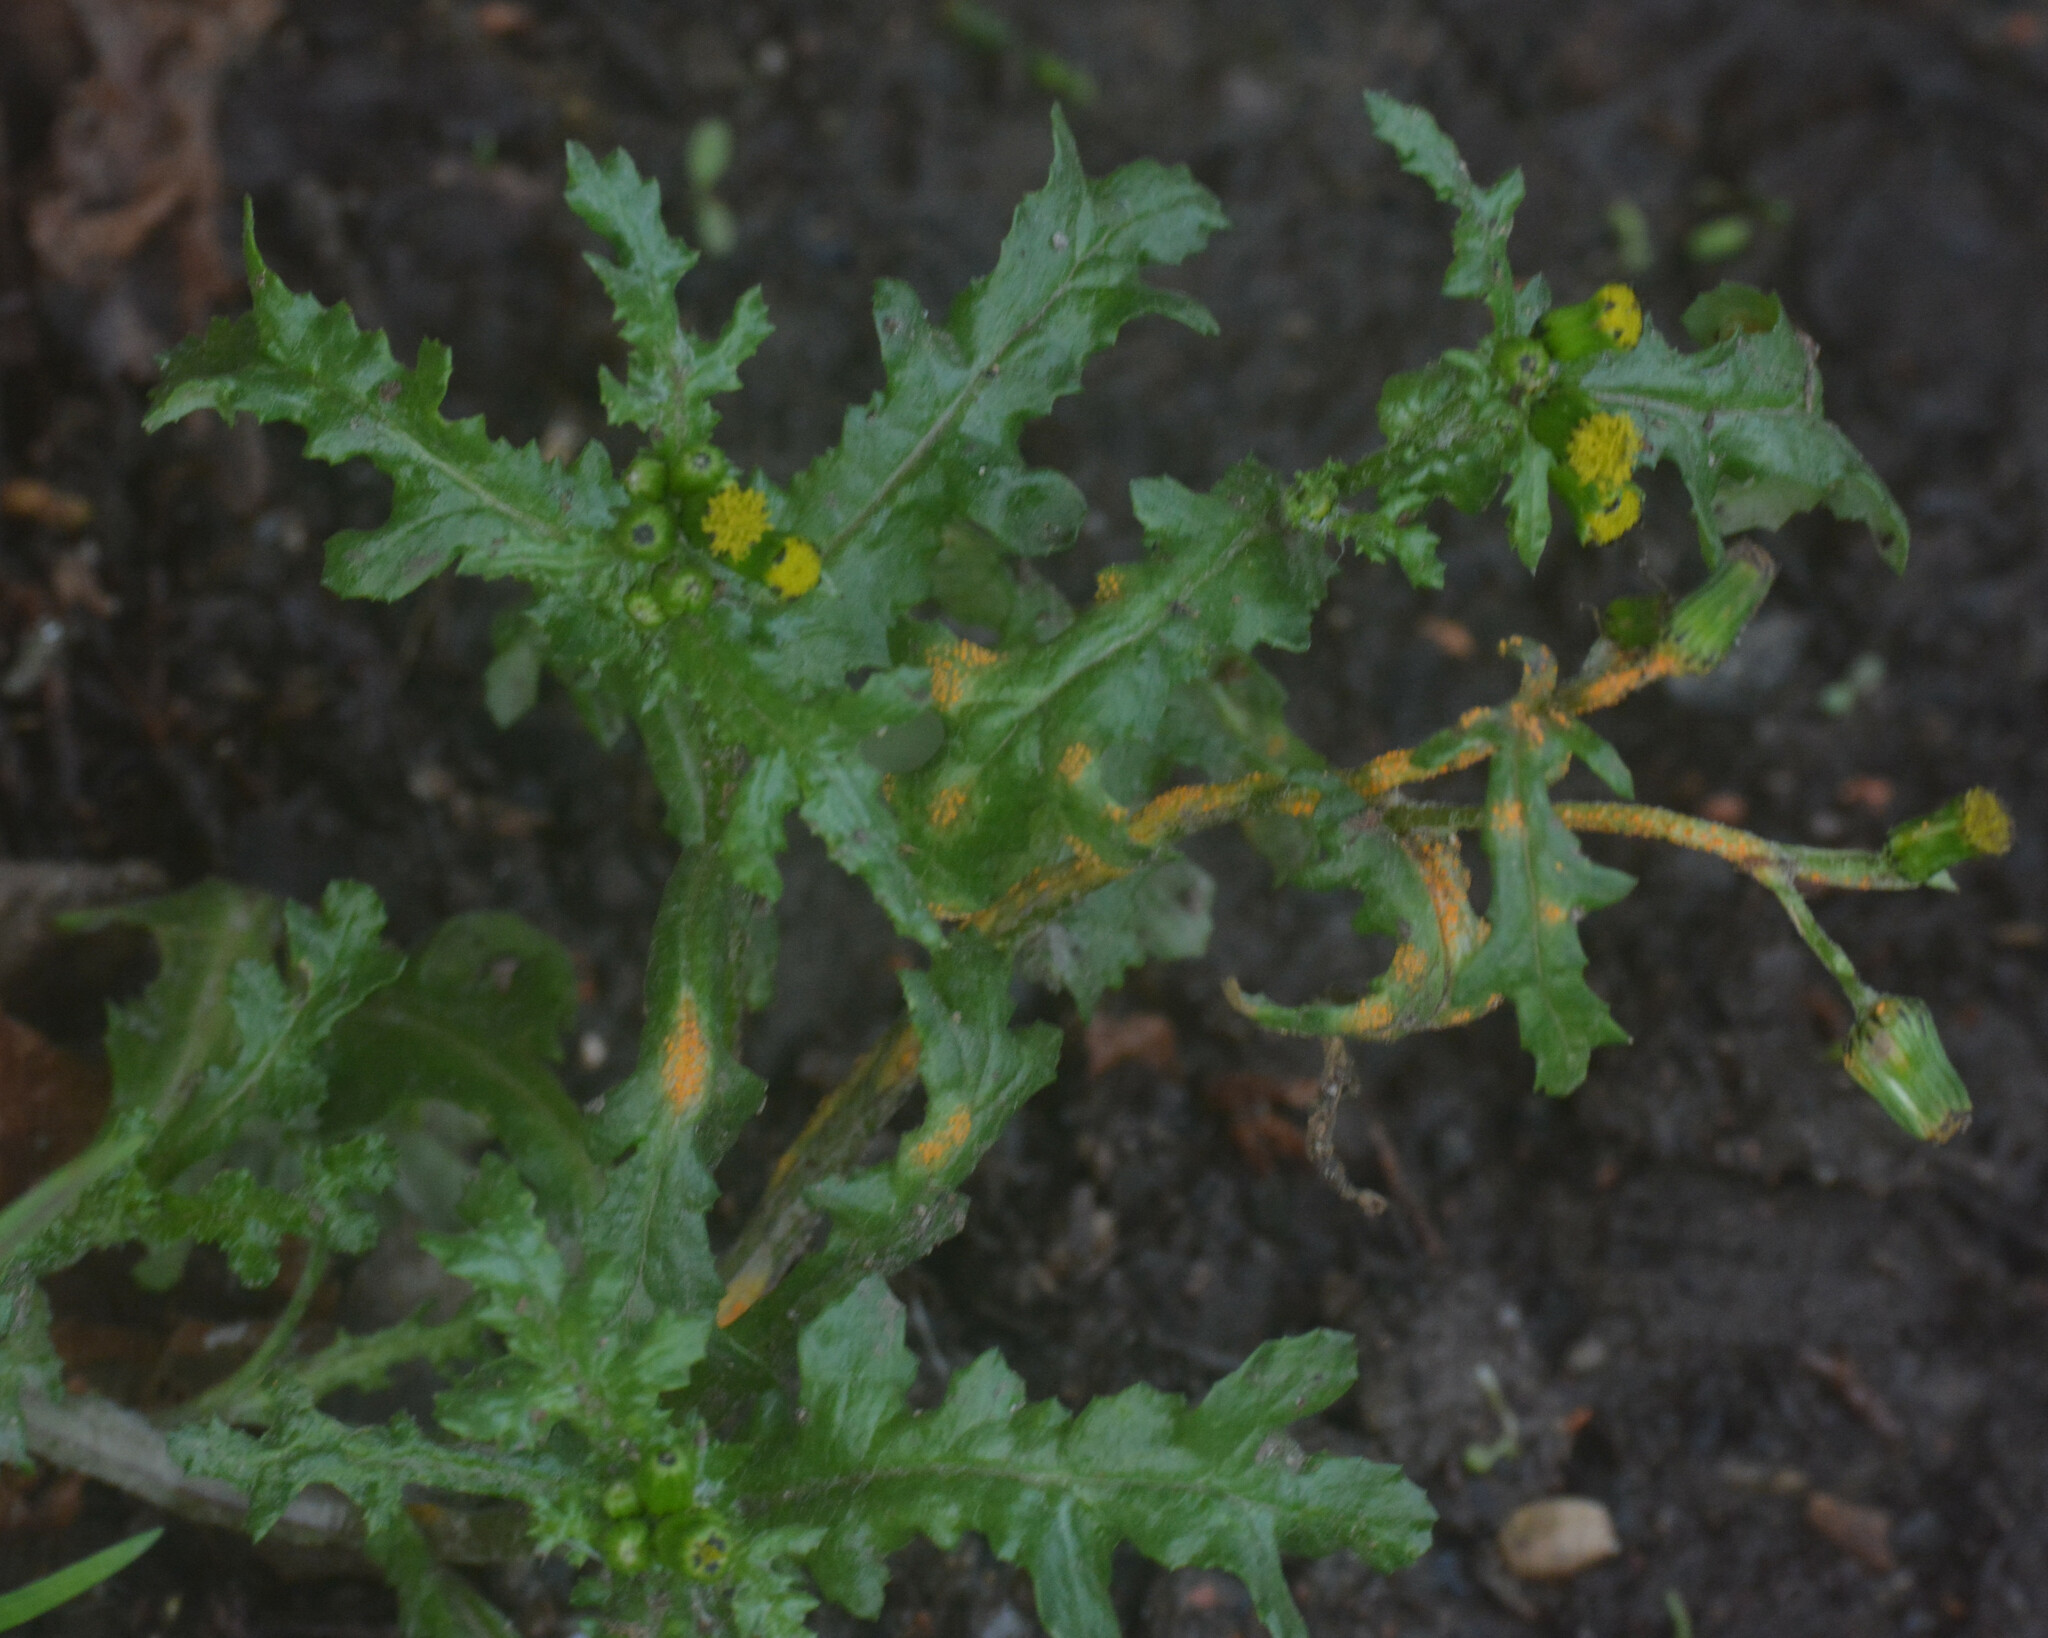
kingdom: Fungi
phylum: Basidiomycota
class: Pucciniomycetes
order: Pucciniales
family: Pucciniaceae
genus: Puccinia
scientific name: Puccinia lagenophorae
